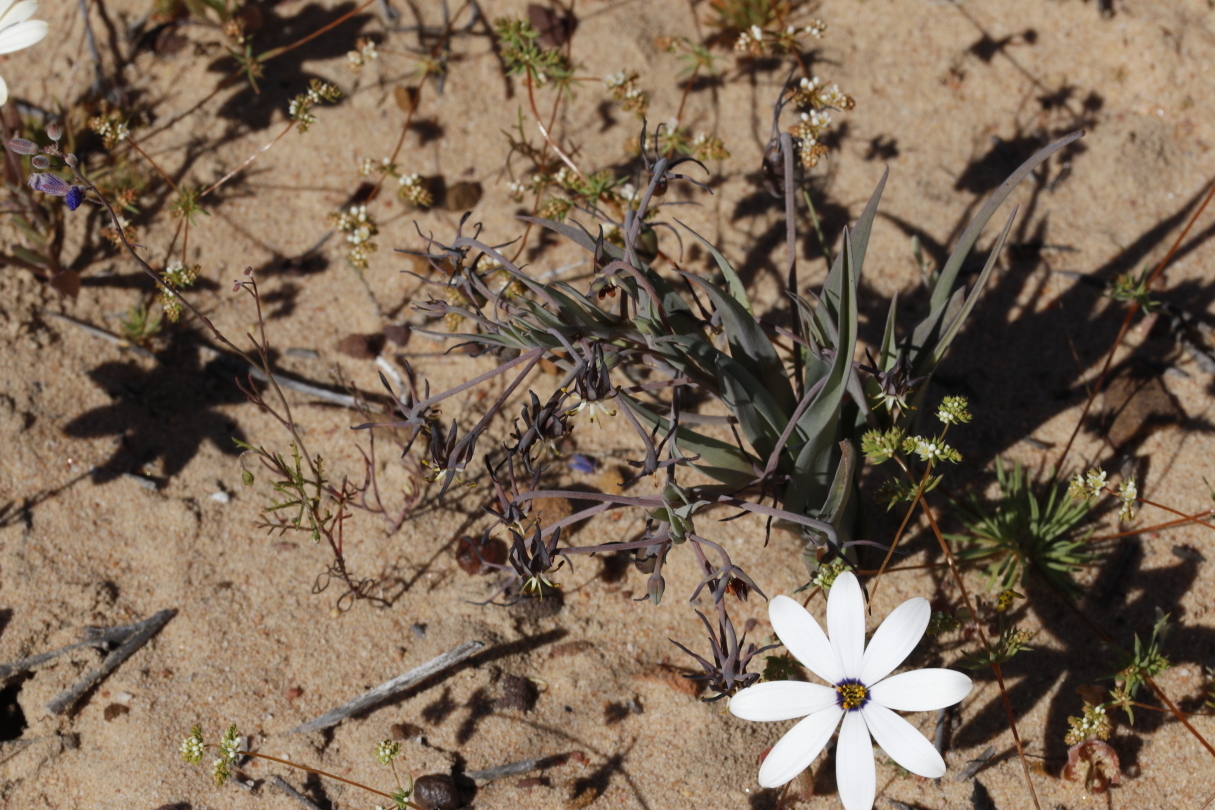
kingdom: Plantae
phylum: Tracheophyta
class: Liliopsida
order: Liliales
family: Colchicaceae
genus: Ornithoglossum
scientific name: Ornithoglossum vulgare
